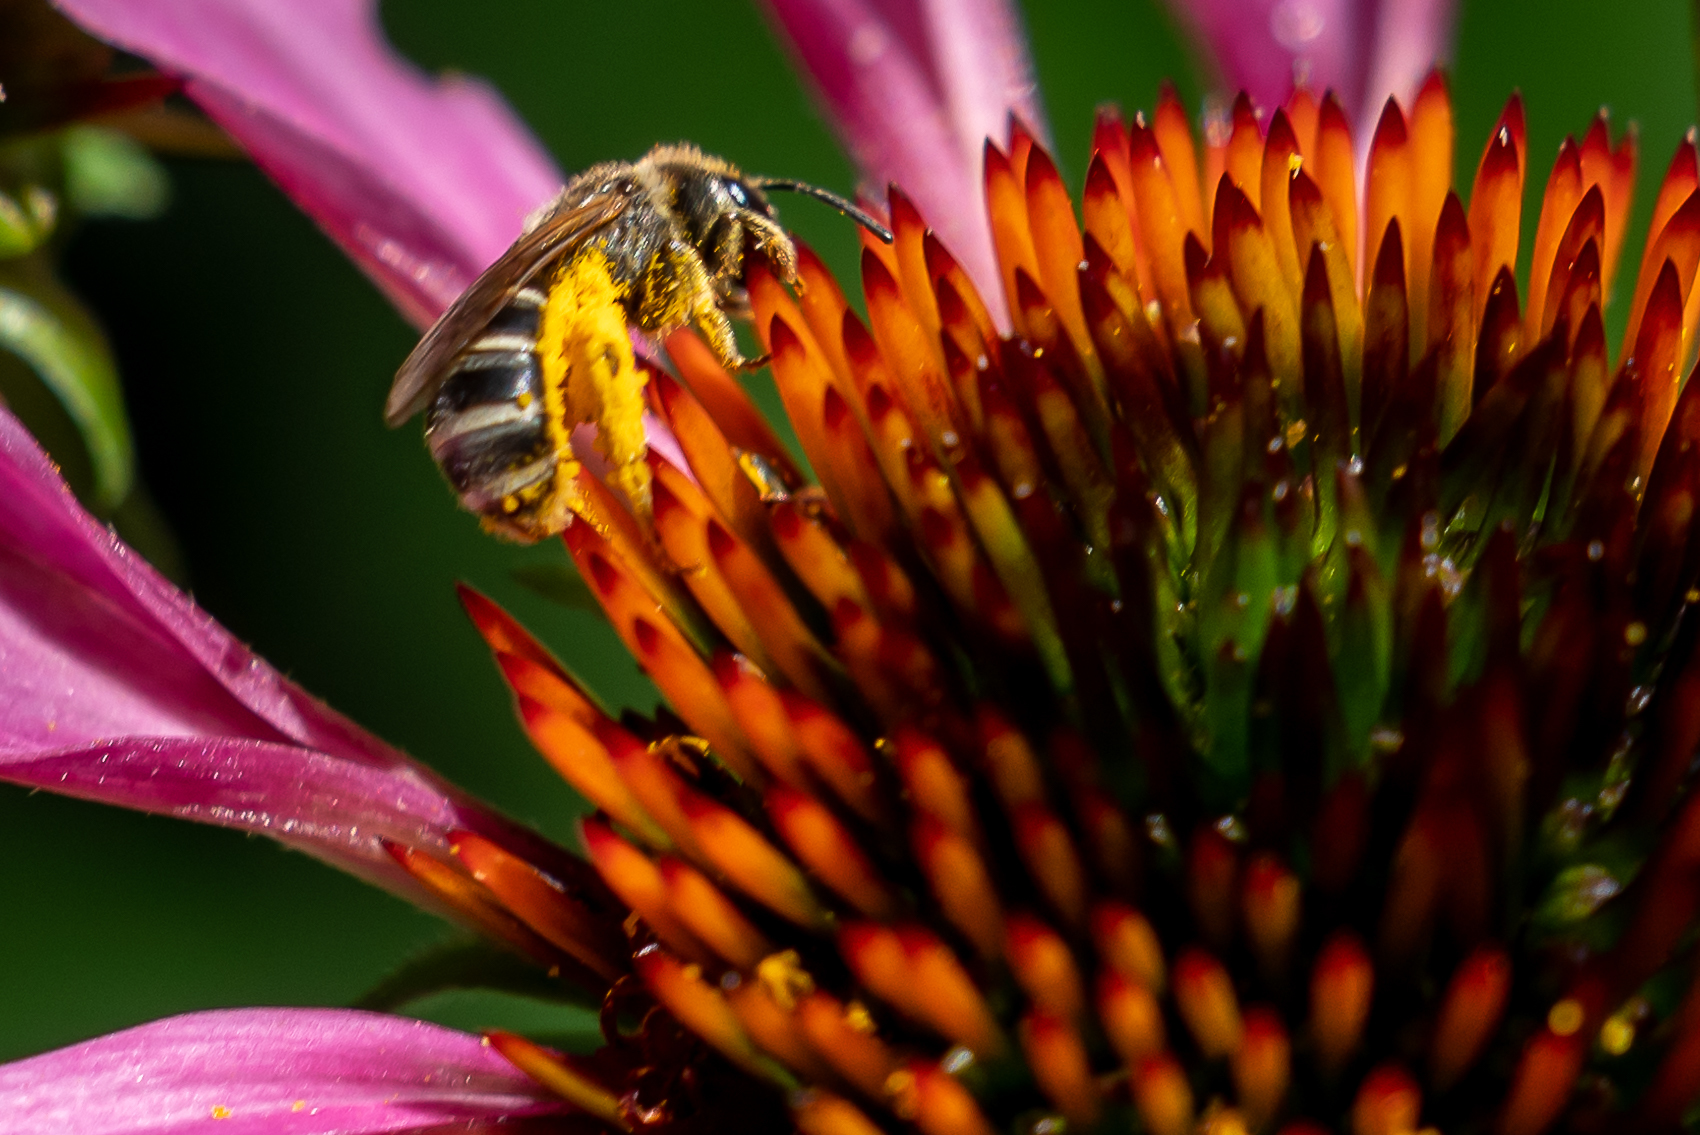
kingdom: Animalia
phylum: Arthropoda
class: Insecta
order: Hymenoptera
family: Halictidae
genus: Halictus
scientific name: Halictus ligatus
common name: Ligated furrow bee
